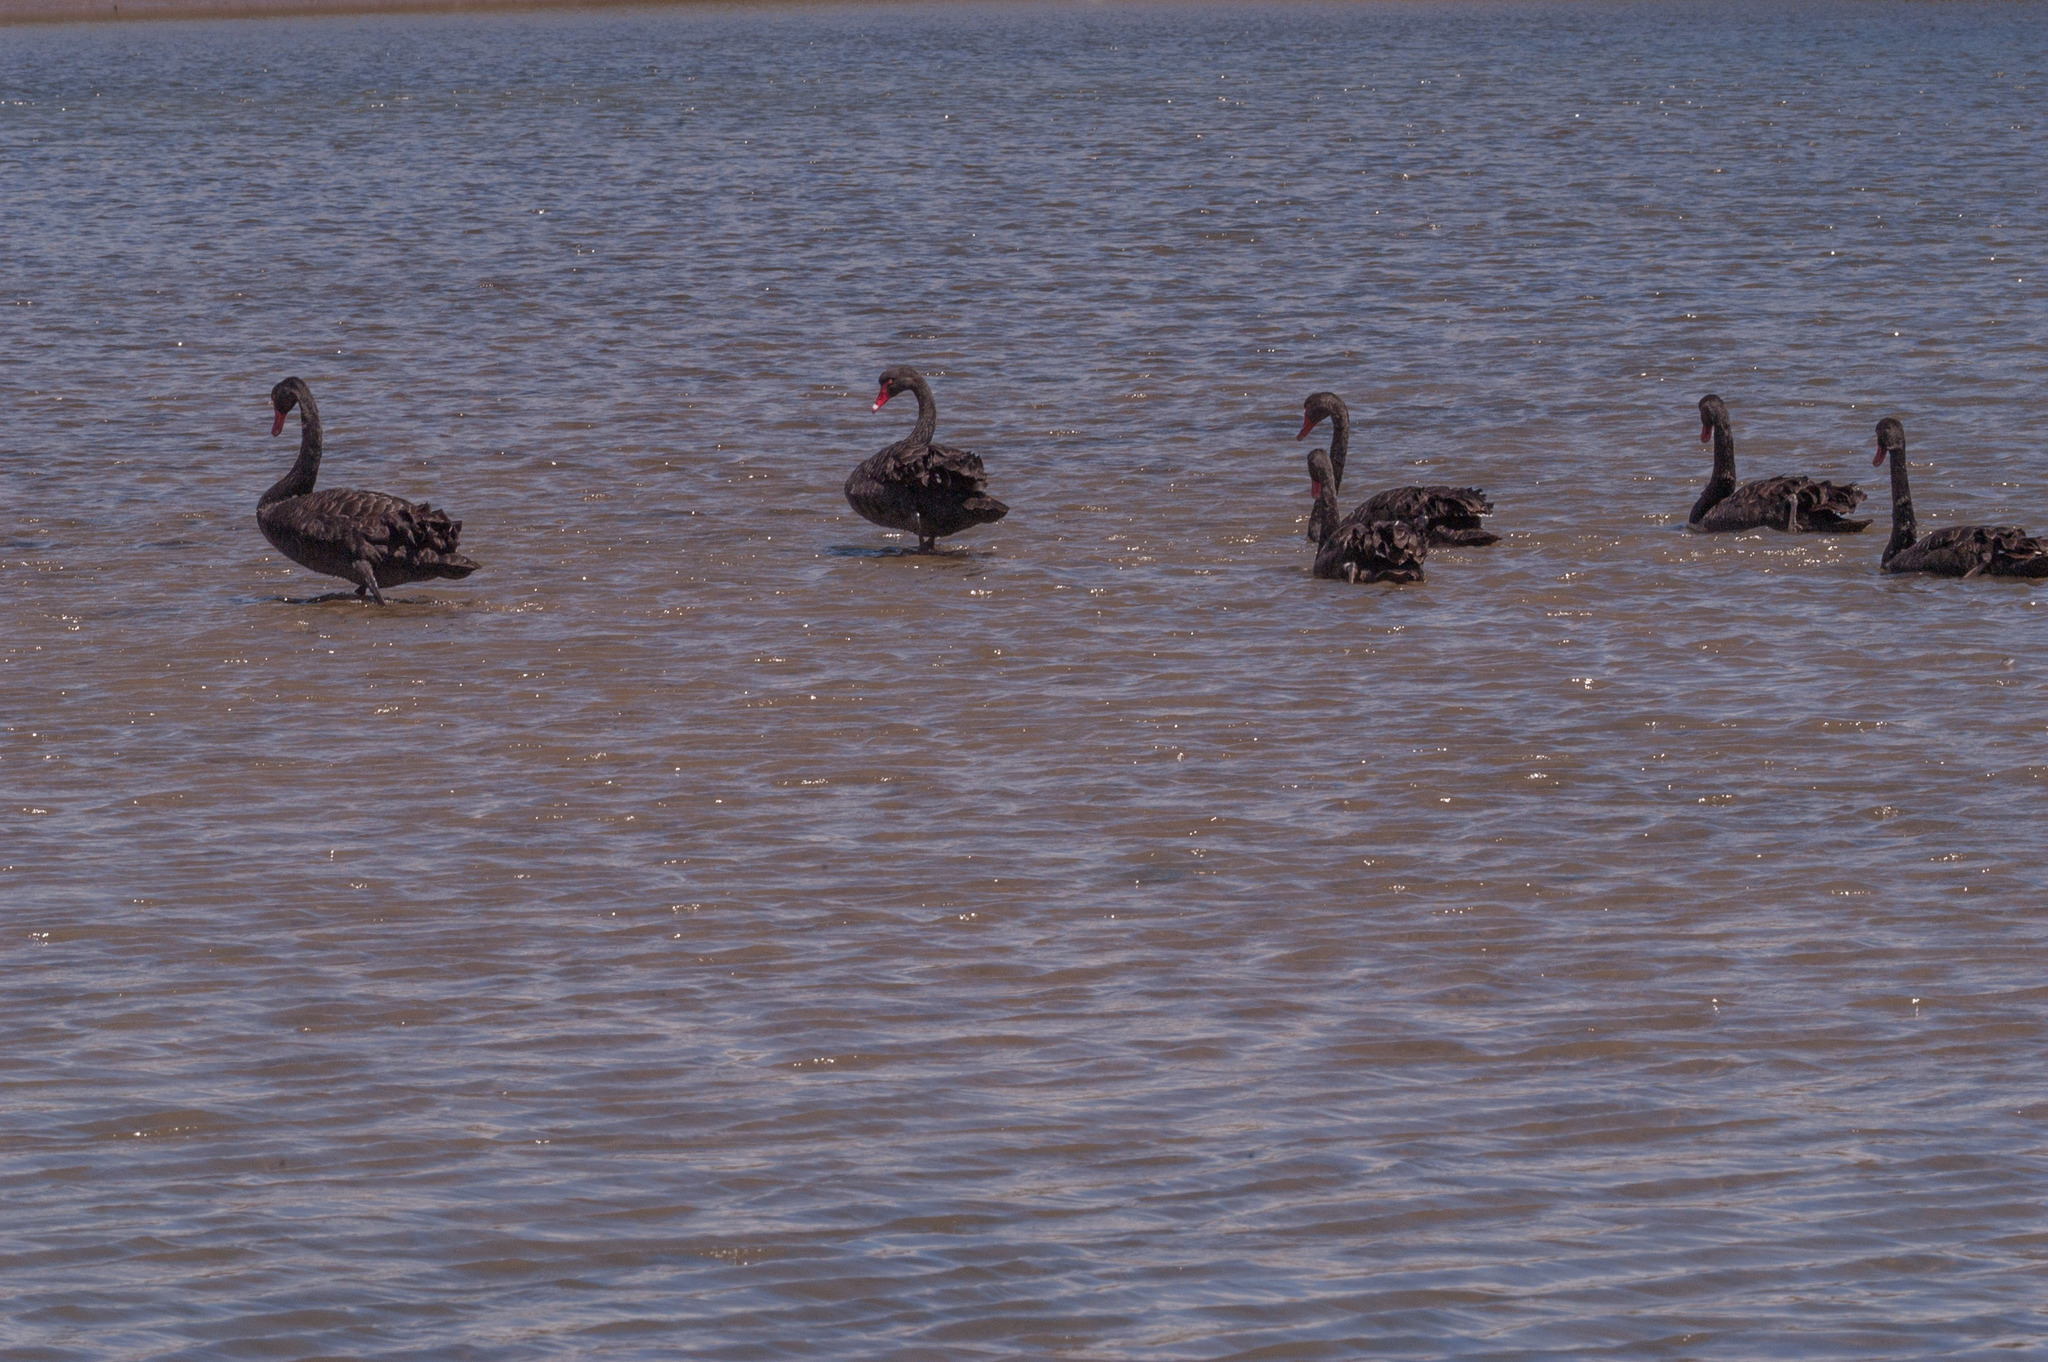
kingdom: Animalia
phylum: Chordata
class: Aves
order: Anseriformes
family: Anatidae
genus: Cygnus
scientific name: Cygnus atratus
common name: Black swan
